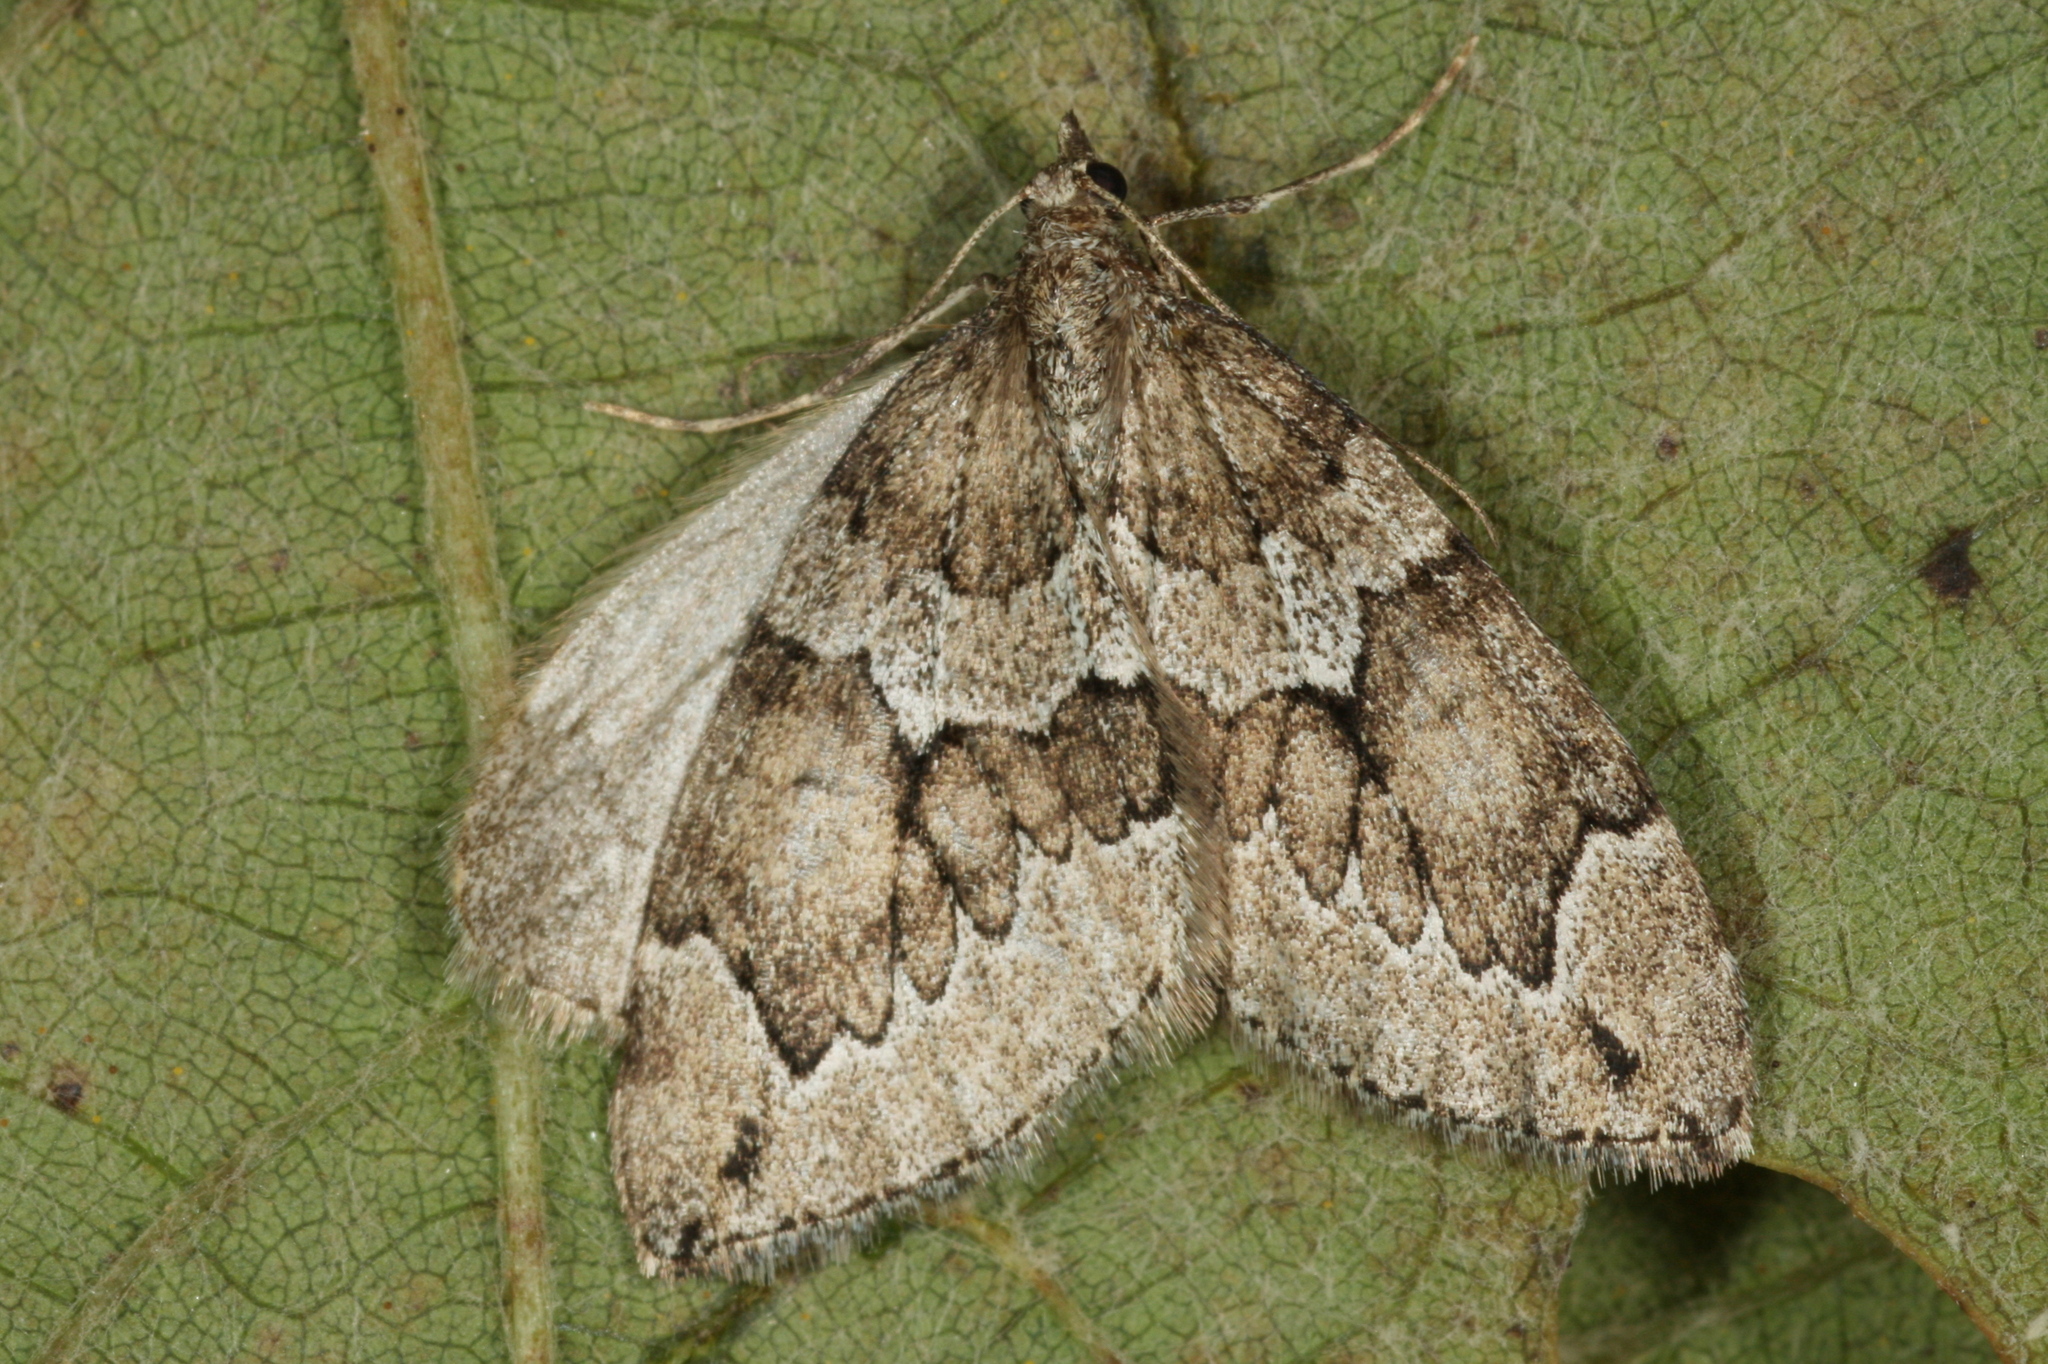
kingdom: Animalia
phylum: Arthropoda
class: Insecta
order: Lepidoptera
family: Geometridae
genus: Thera
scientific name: Thera juniperata
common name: Juniper carpet
